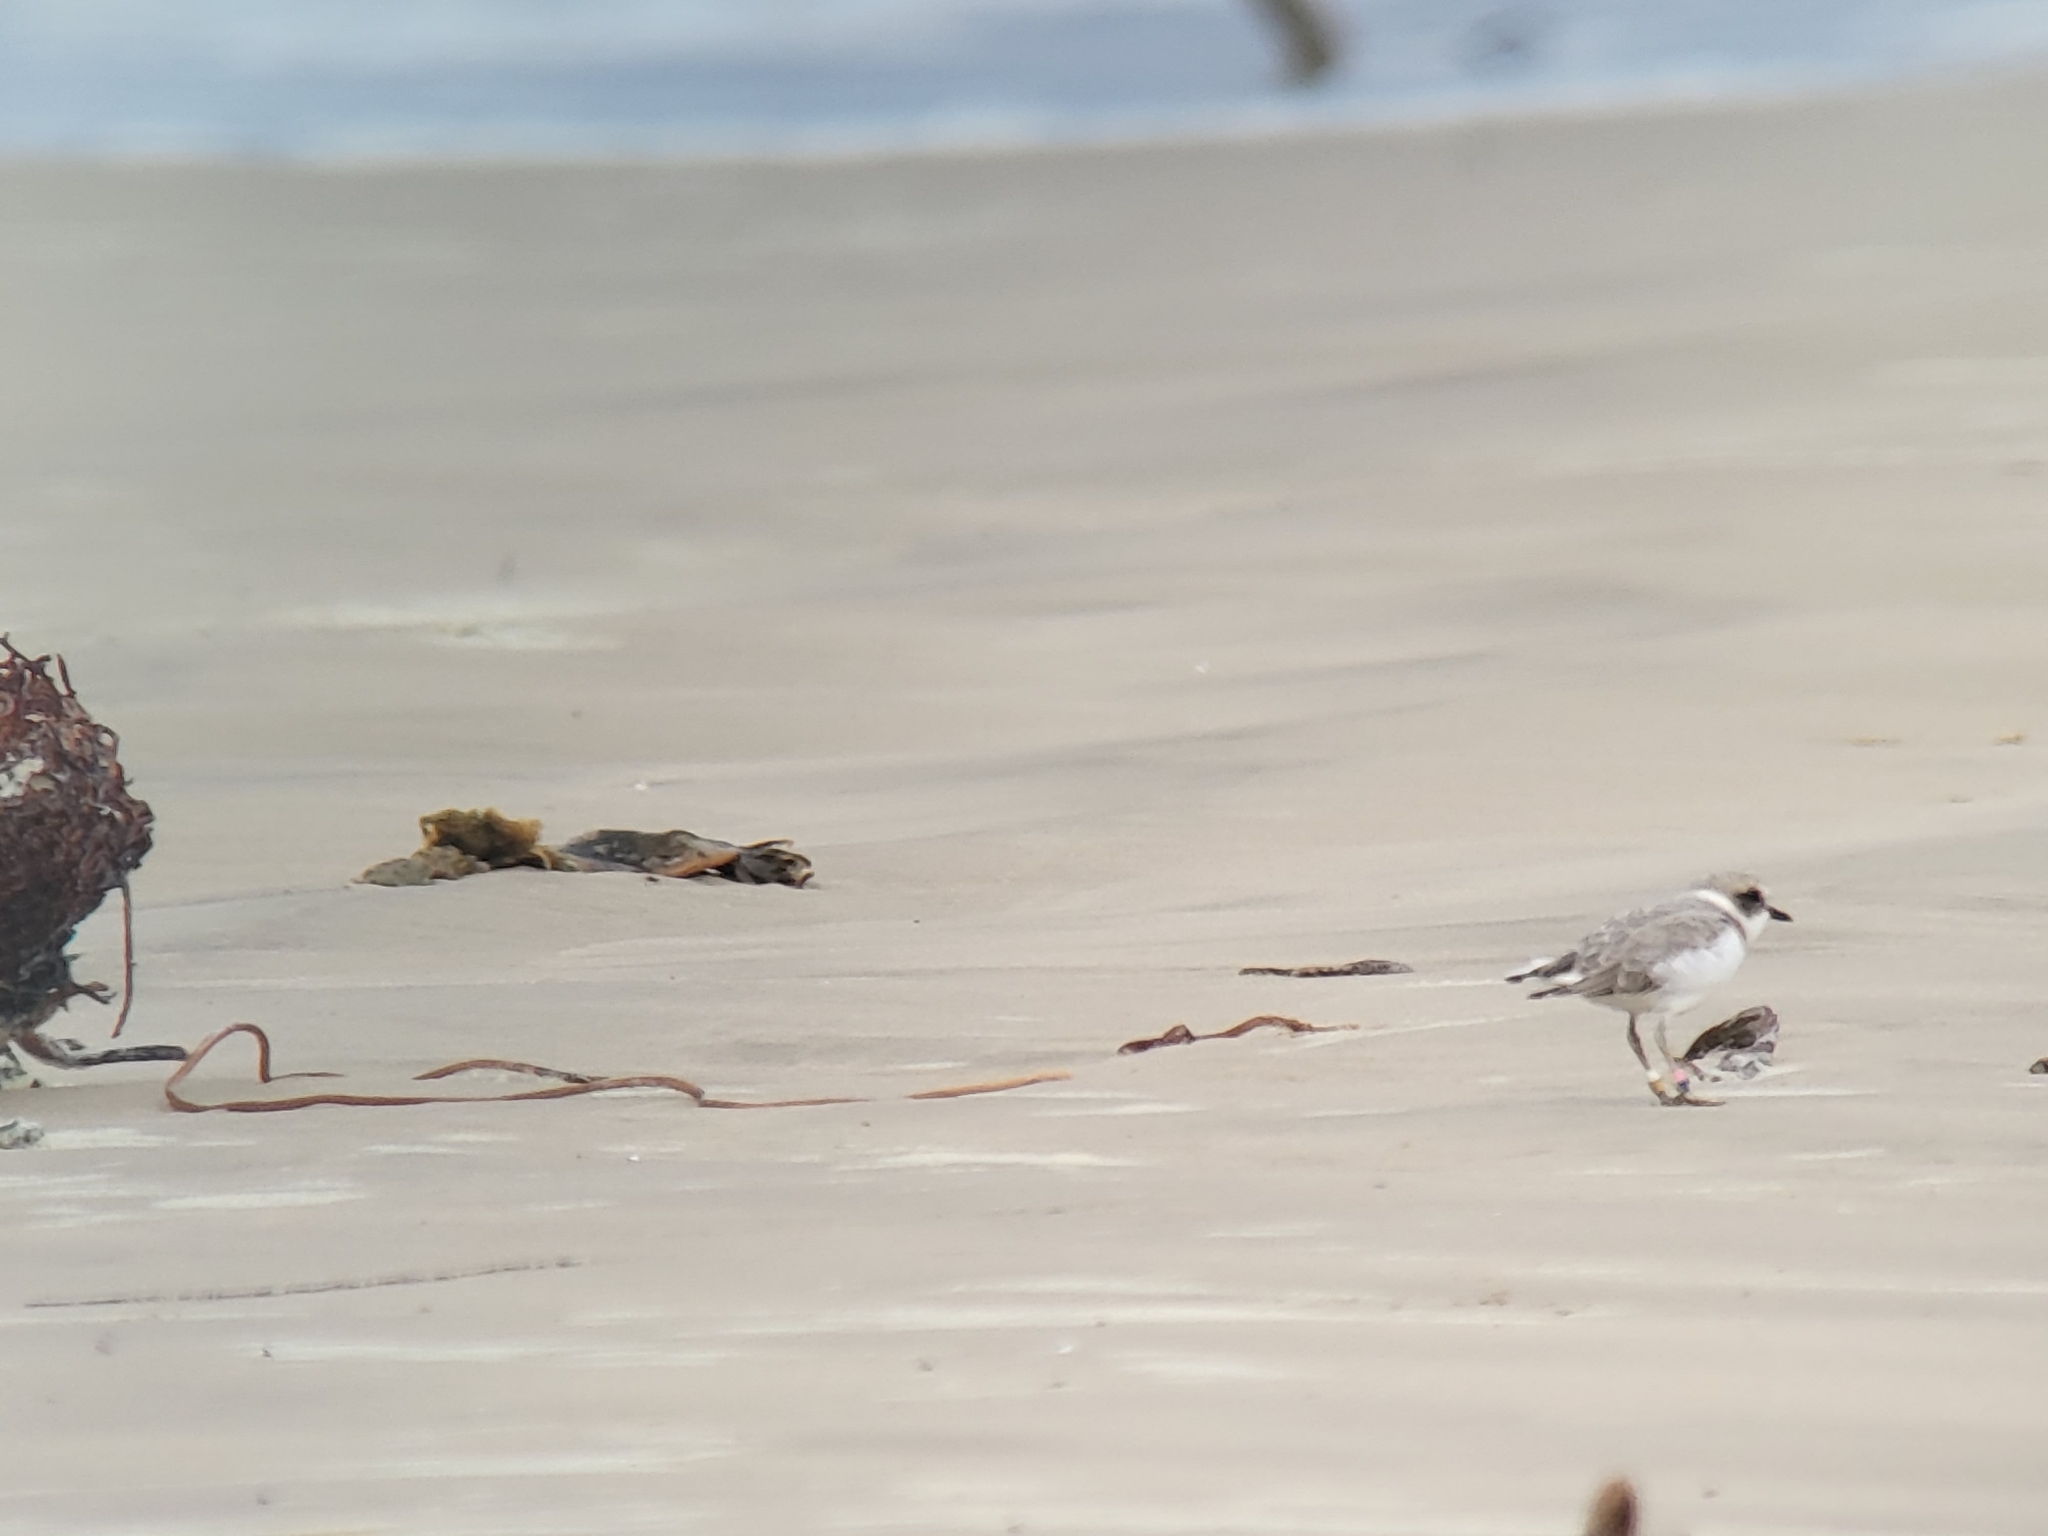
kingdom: Animalia
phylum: Chordata
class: Aves
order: Charadriiformes
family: Charadriidae
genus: Anarhynchus
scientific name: Anarhynchus
